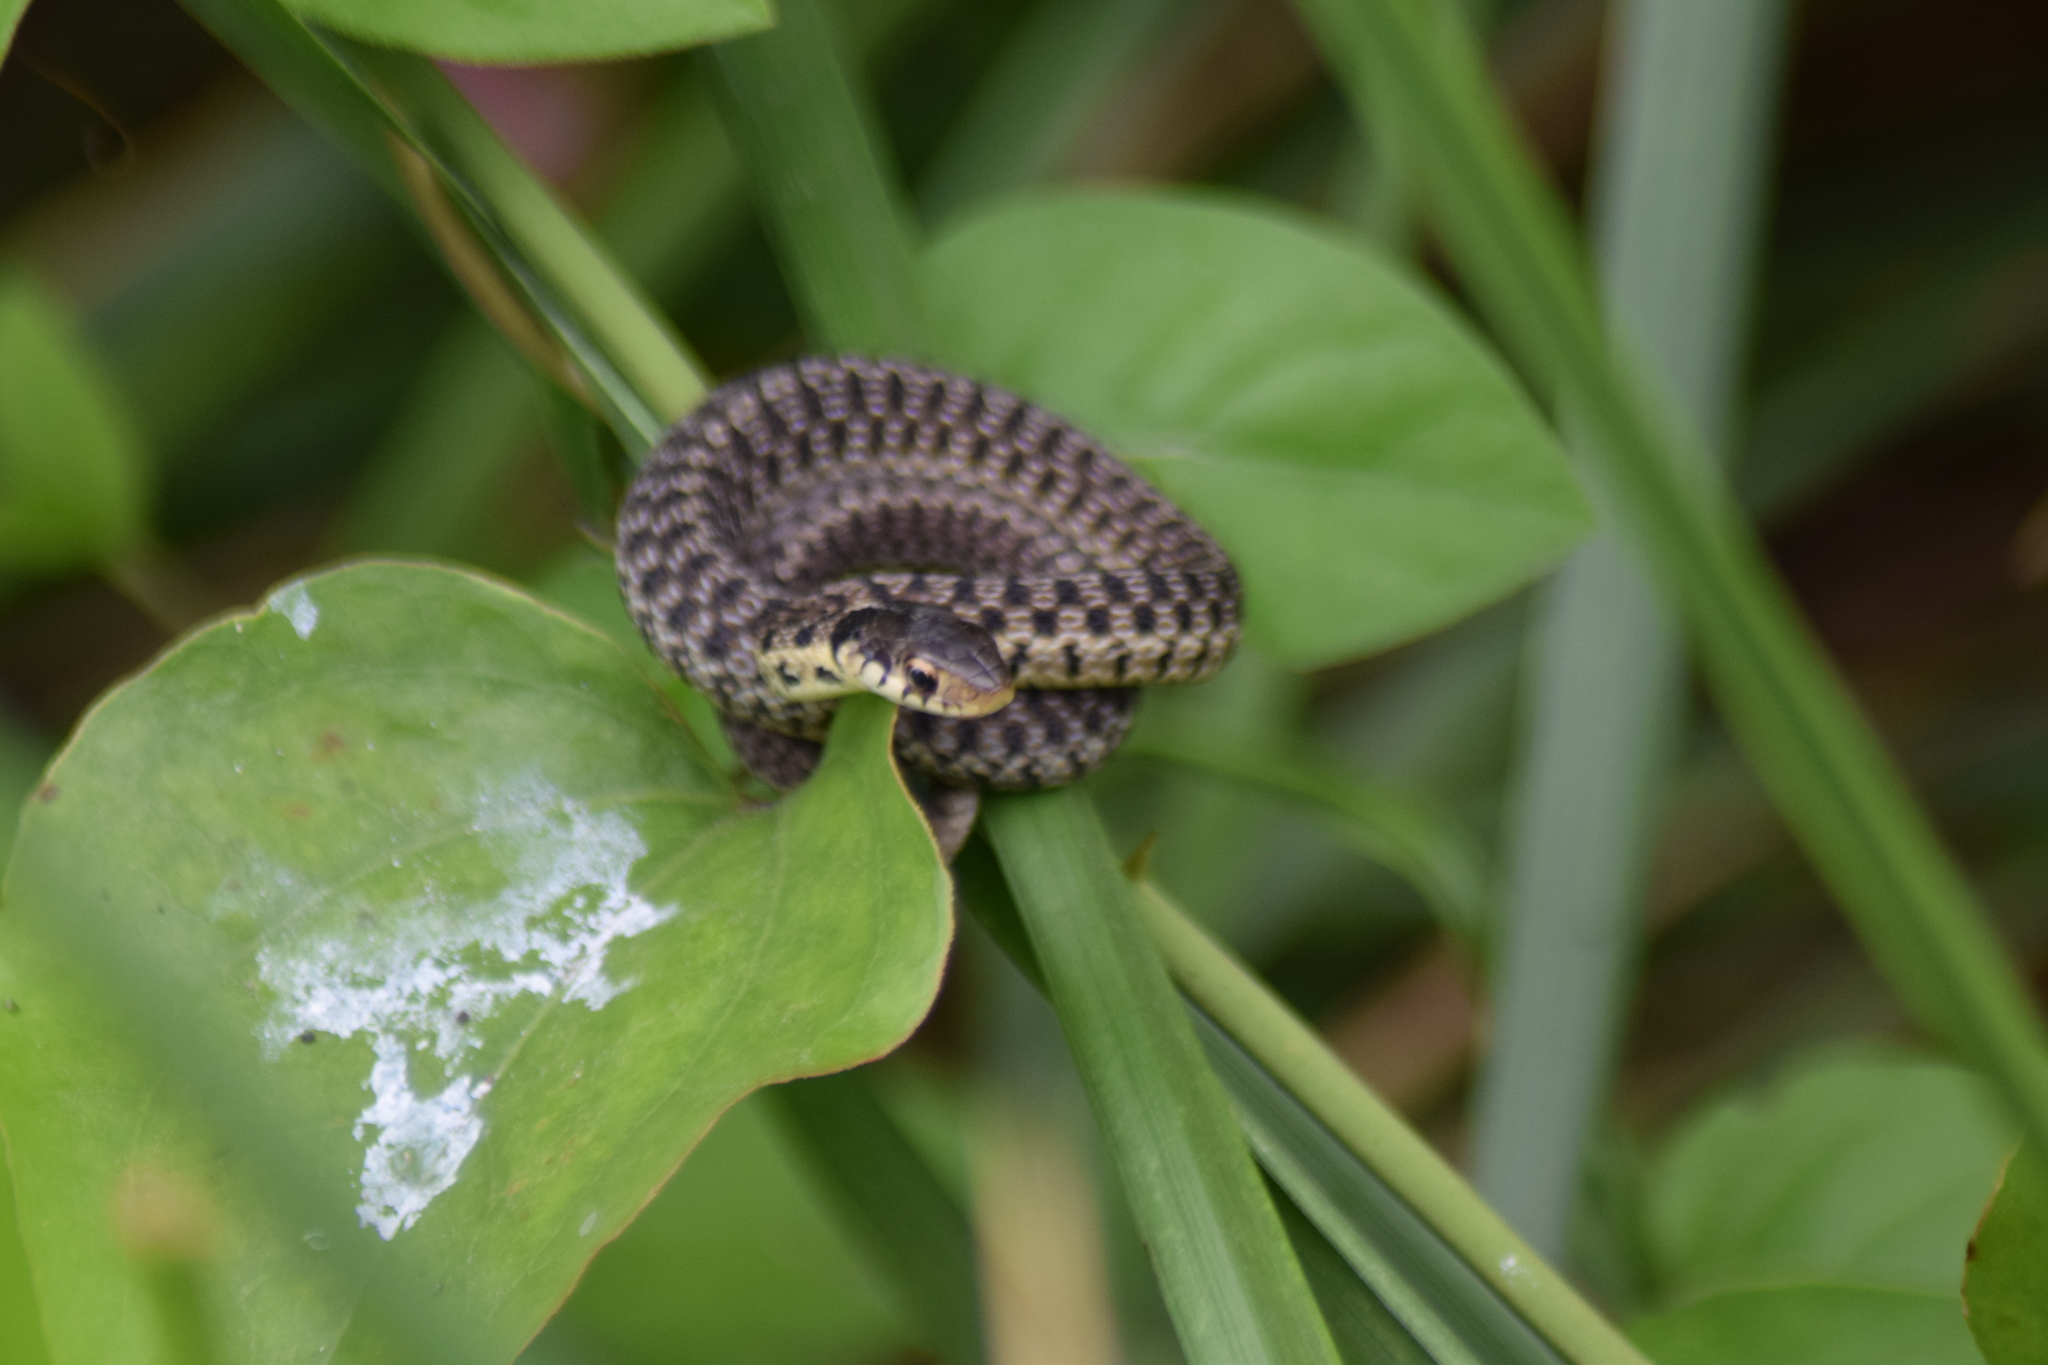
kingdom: Animalia
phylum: Chordata
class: Squamata
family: Colubridae
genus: Thamnophis
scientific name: Thamnophis sirtalis
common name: Common garter snake
